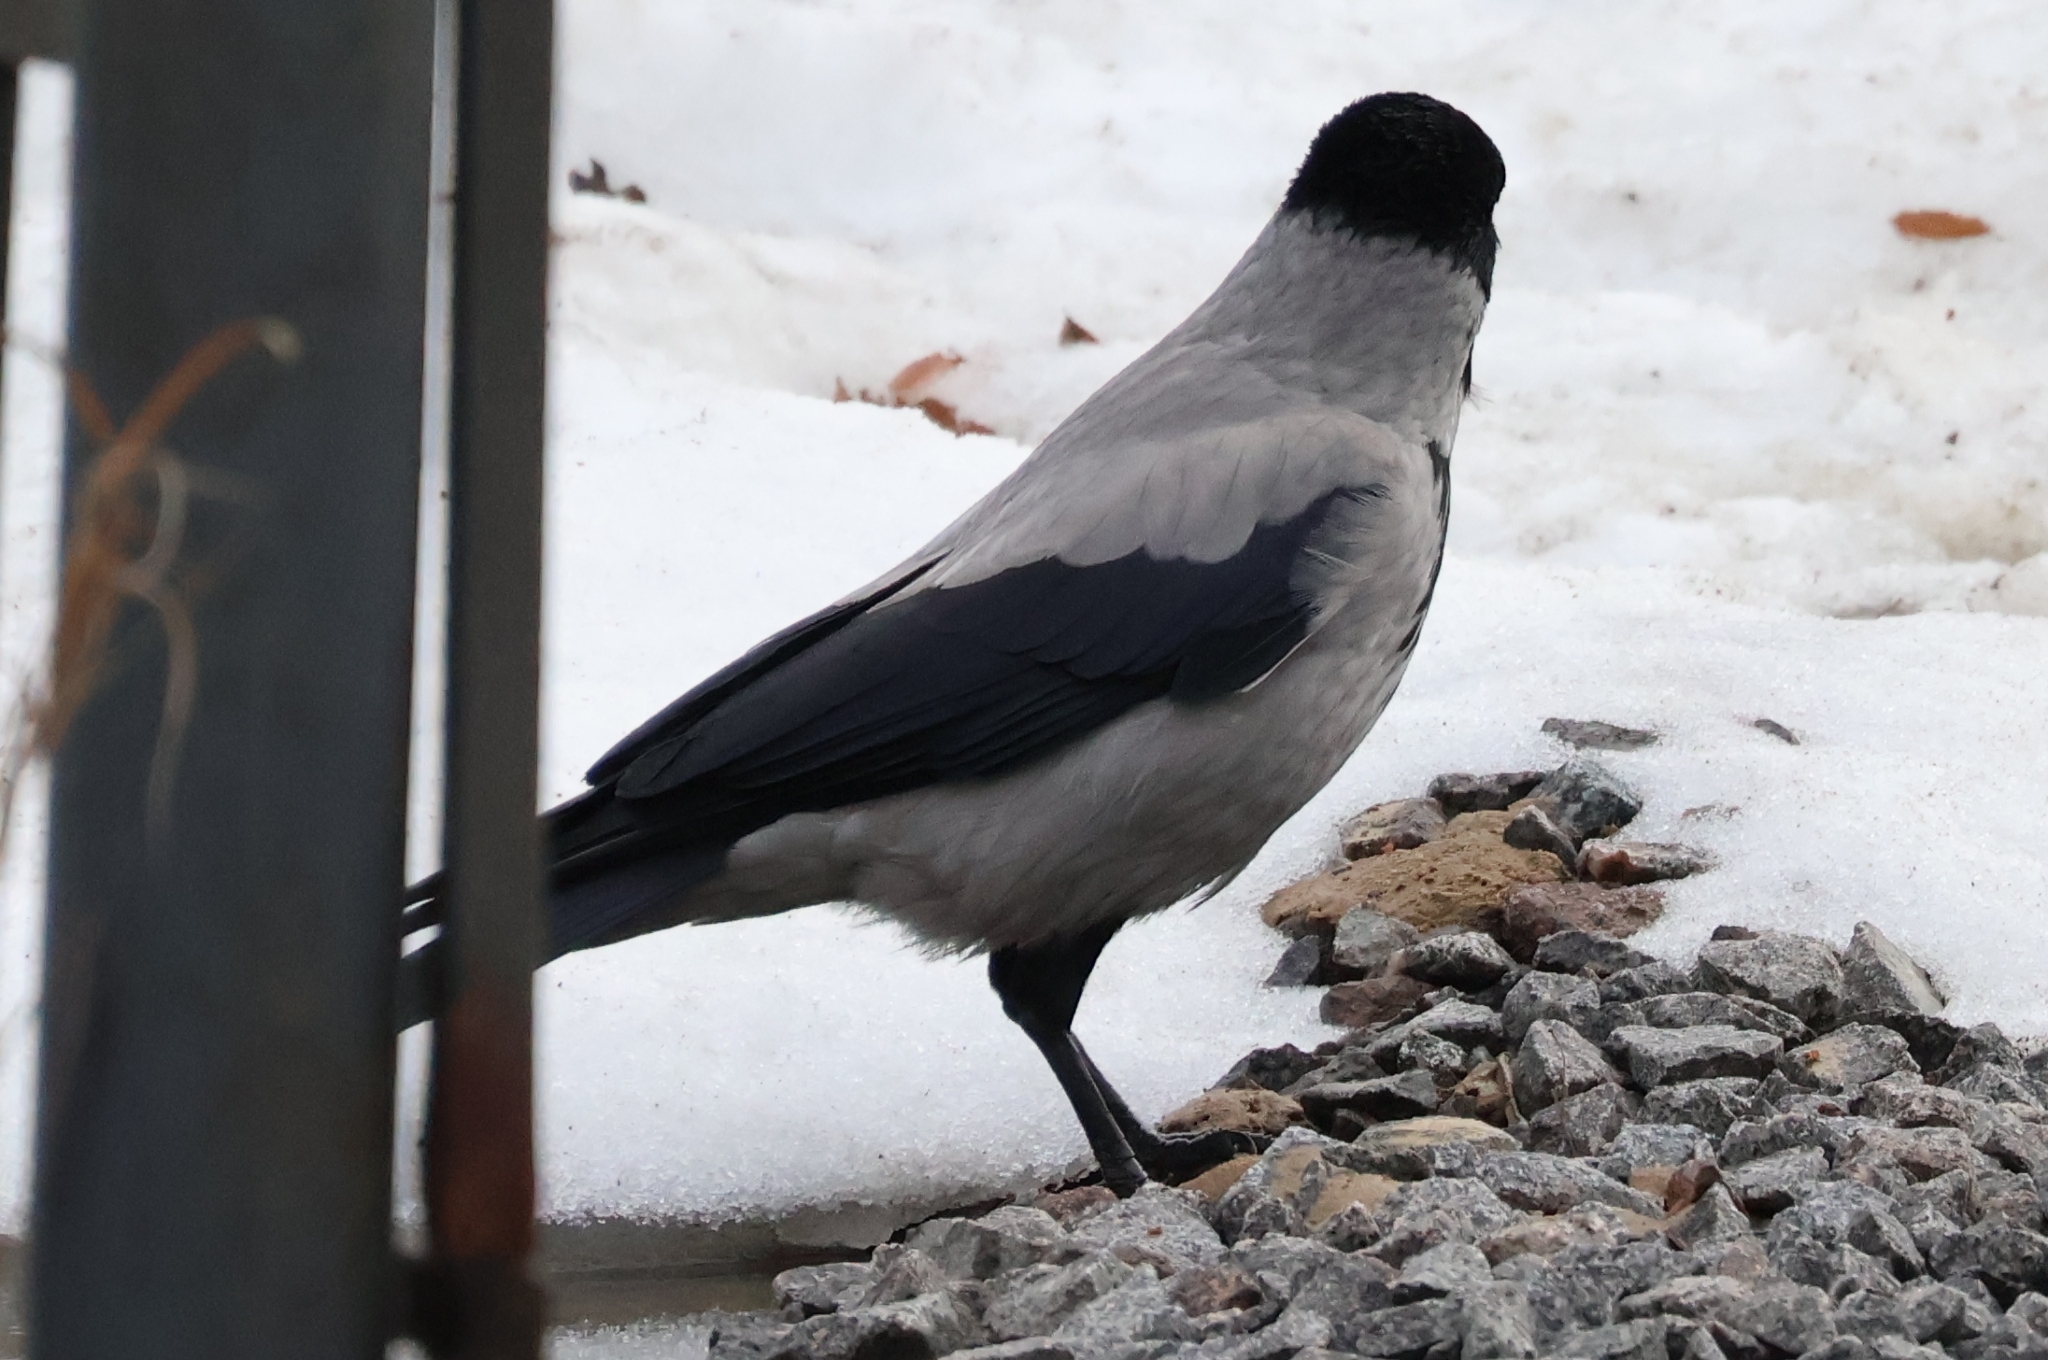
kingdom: Animalia
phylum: Chordata
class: Aves
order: Passeriformes
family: Corvidae
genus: Corvus
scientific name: Corvus cornix
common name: Hooded crow
